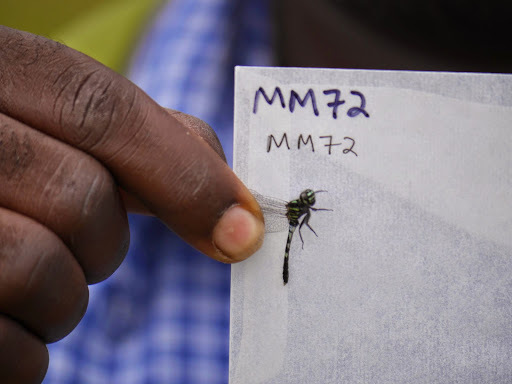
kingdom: Animalia
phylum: Arthropoda
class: Insecta
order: Odonata
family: Libellulidae
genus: Porpax
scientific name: Porpax garambensis
